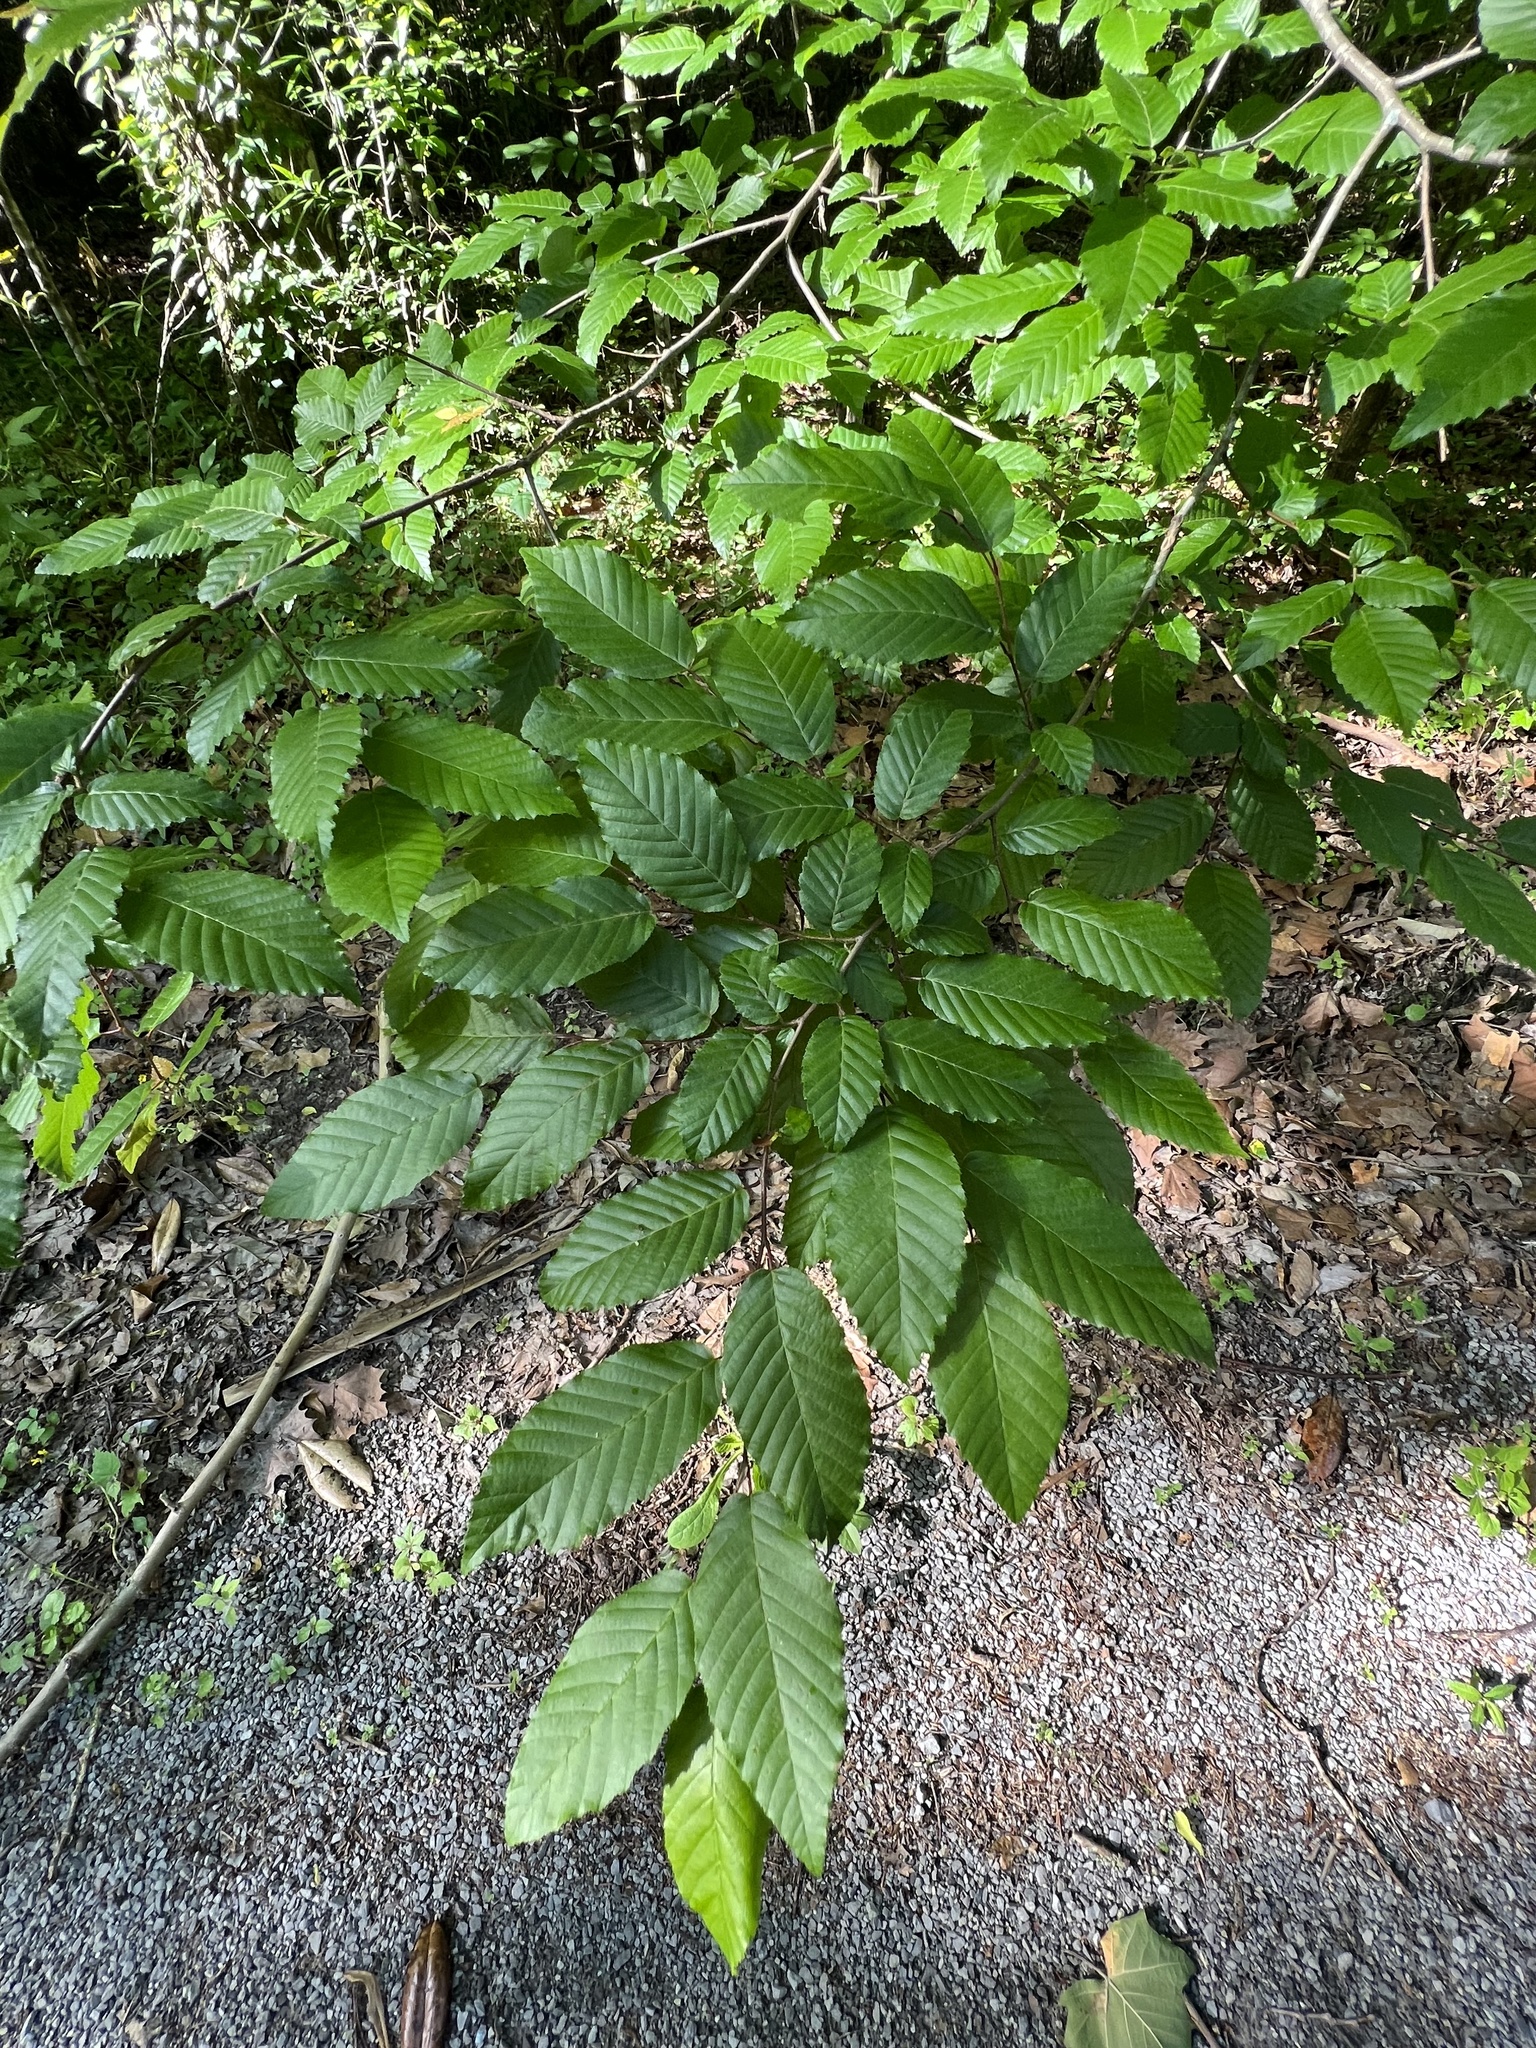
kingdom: Plantae
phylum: Tracheophyta
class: Magnoliopsida
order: Fagales
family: Betulaceae
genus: Carpinus
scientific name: Carpinus caroliniana
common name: American hornbeam
